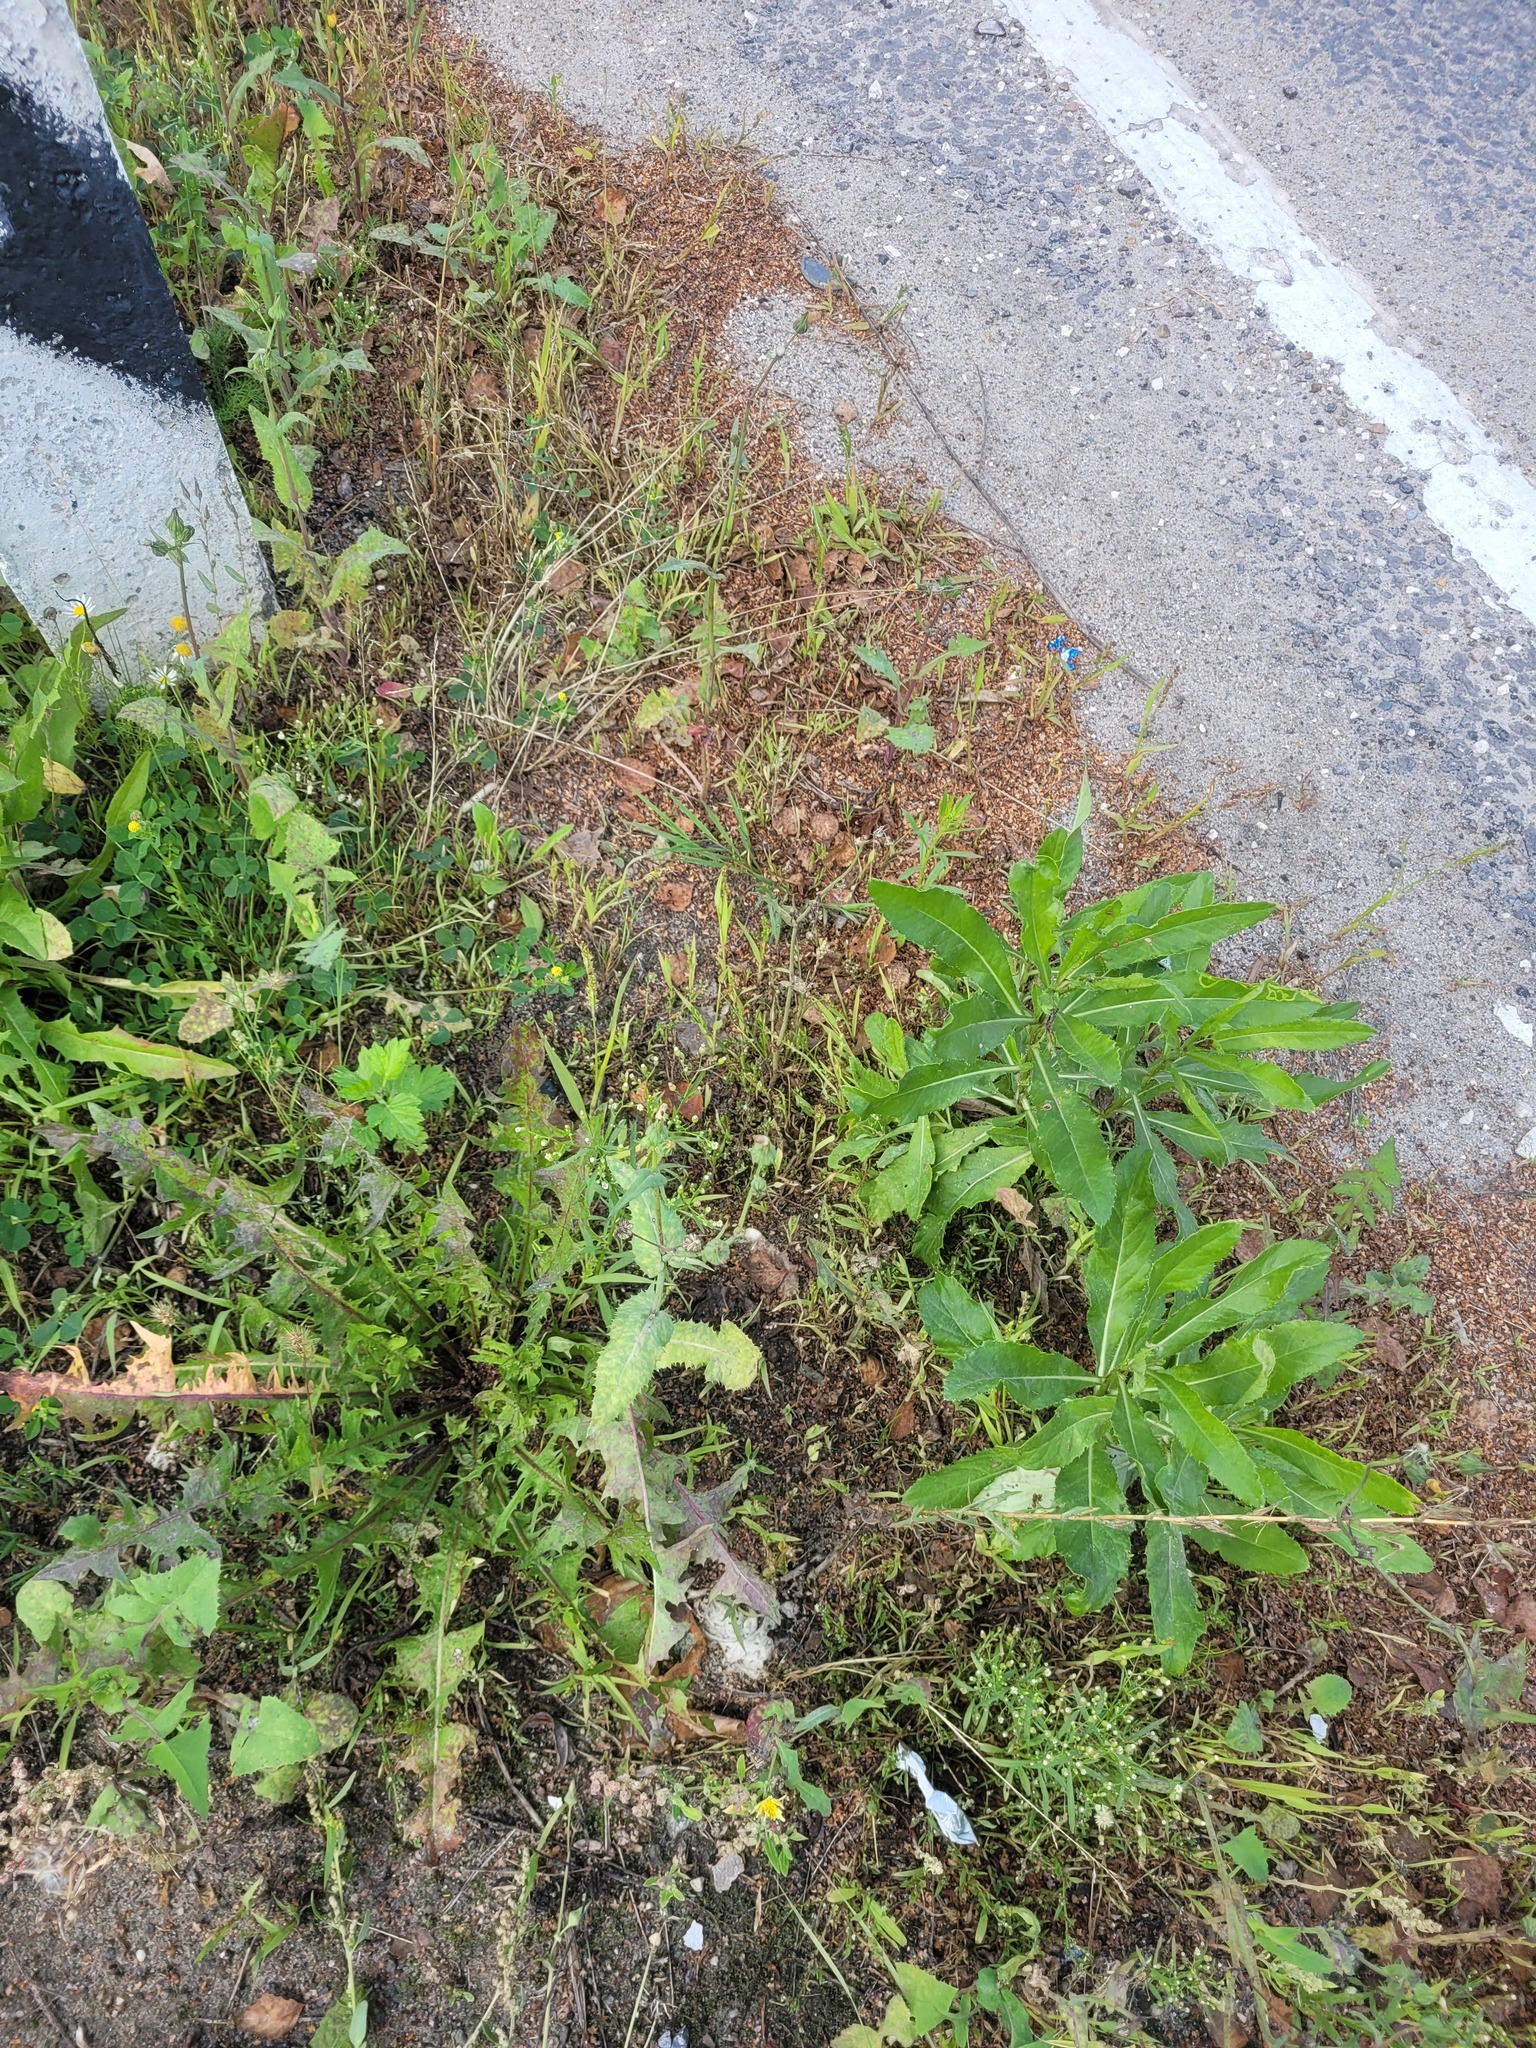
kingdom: Plantae
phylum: Tracheophyta
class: Magnoliopsida
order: Asterales
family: Asteraceae
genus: Sonchus
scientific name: Sonchus oleraceus
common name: Common sowthistle
